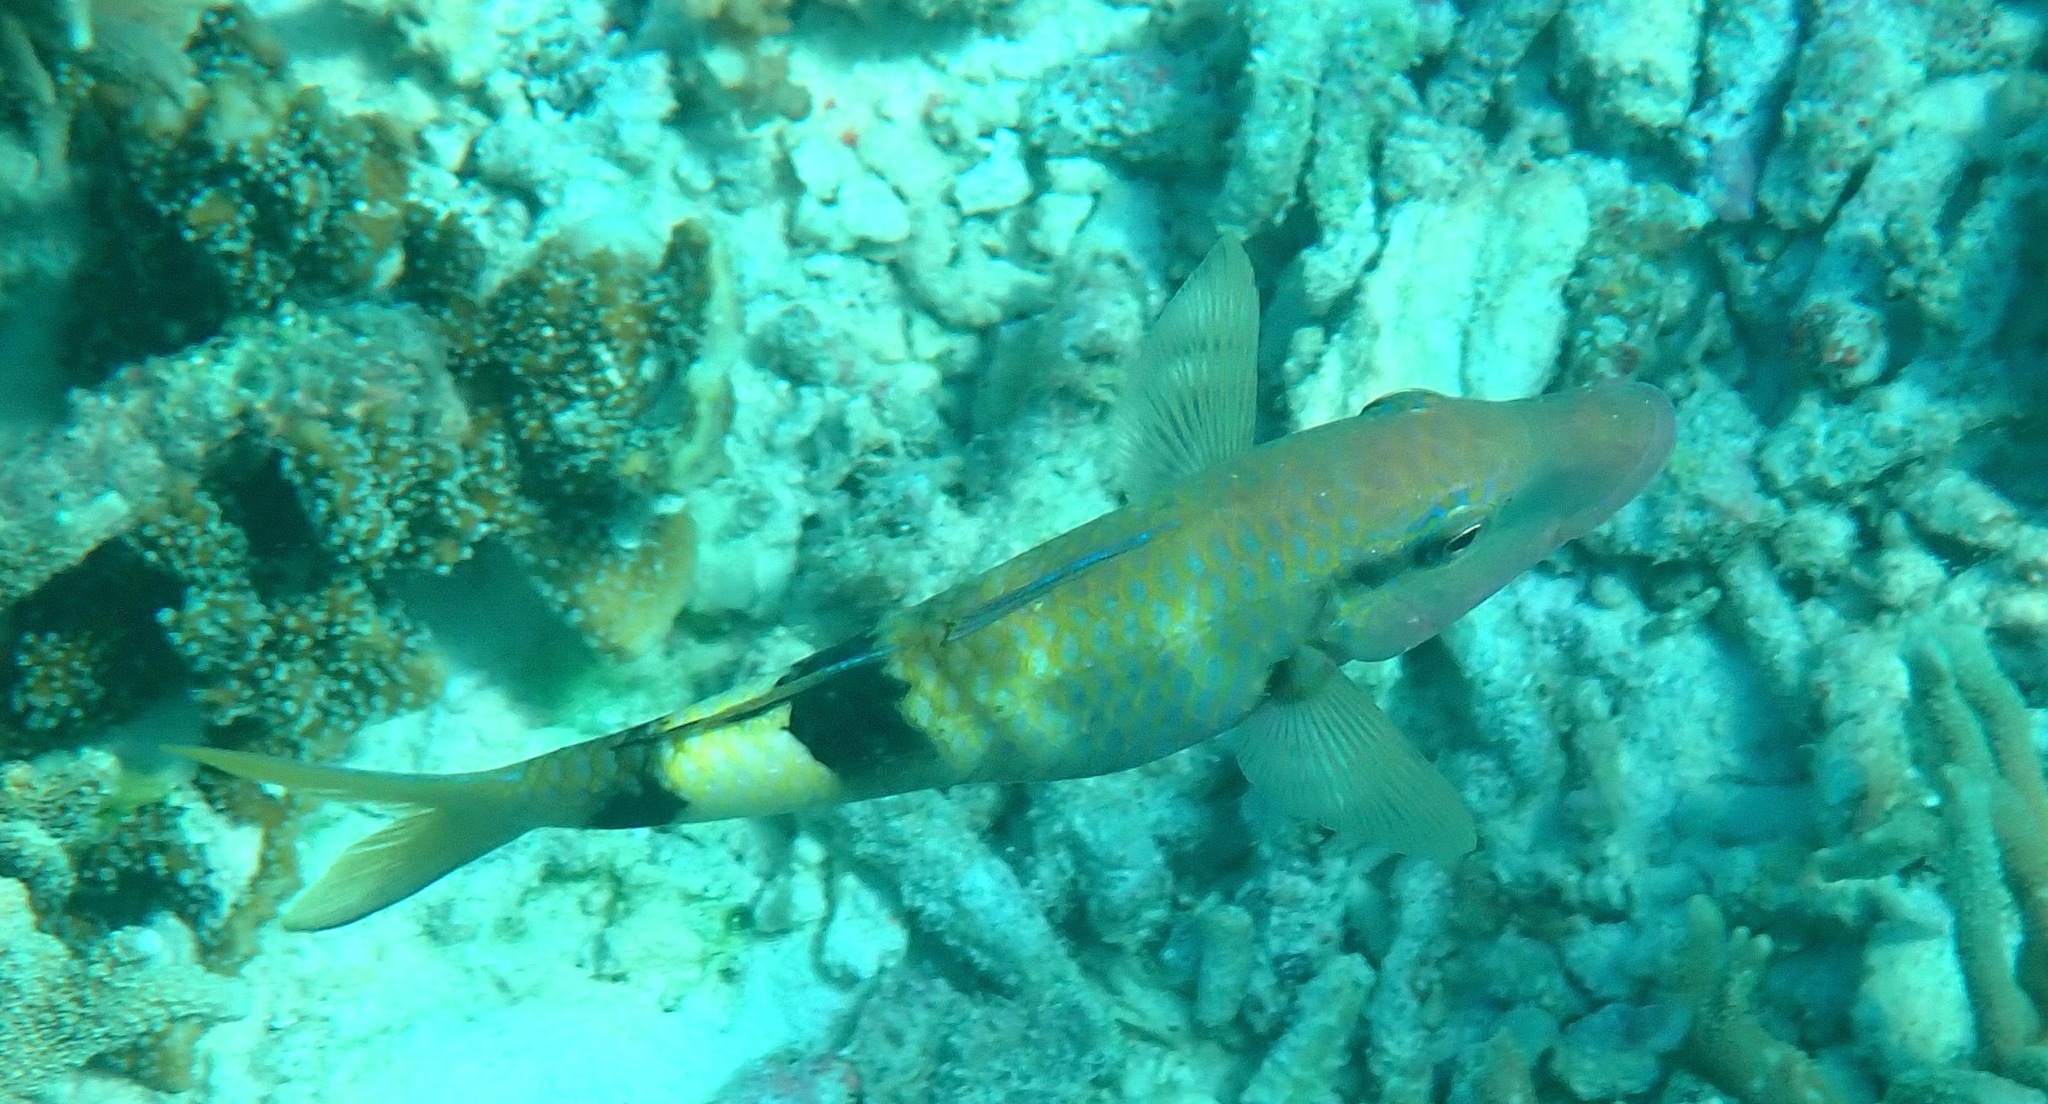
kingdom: Animalia
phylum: Chordata
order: Perciformes
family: Mullidae
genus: Parupeneus
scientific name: Parupeneus multifasciatus
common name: Manybar goatfish
